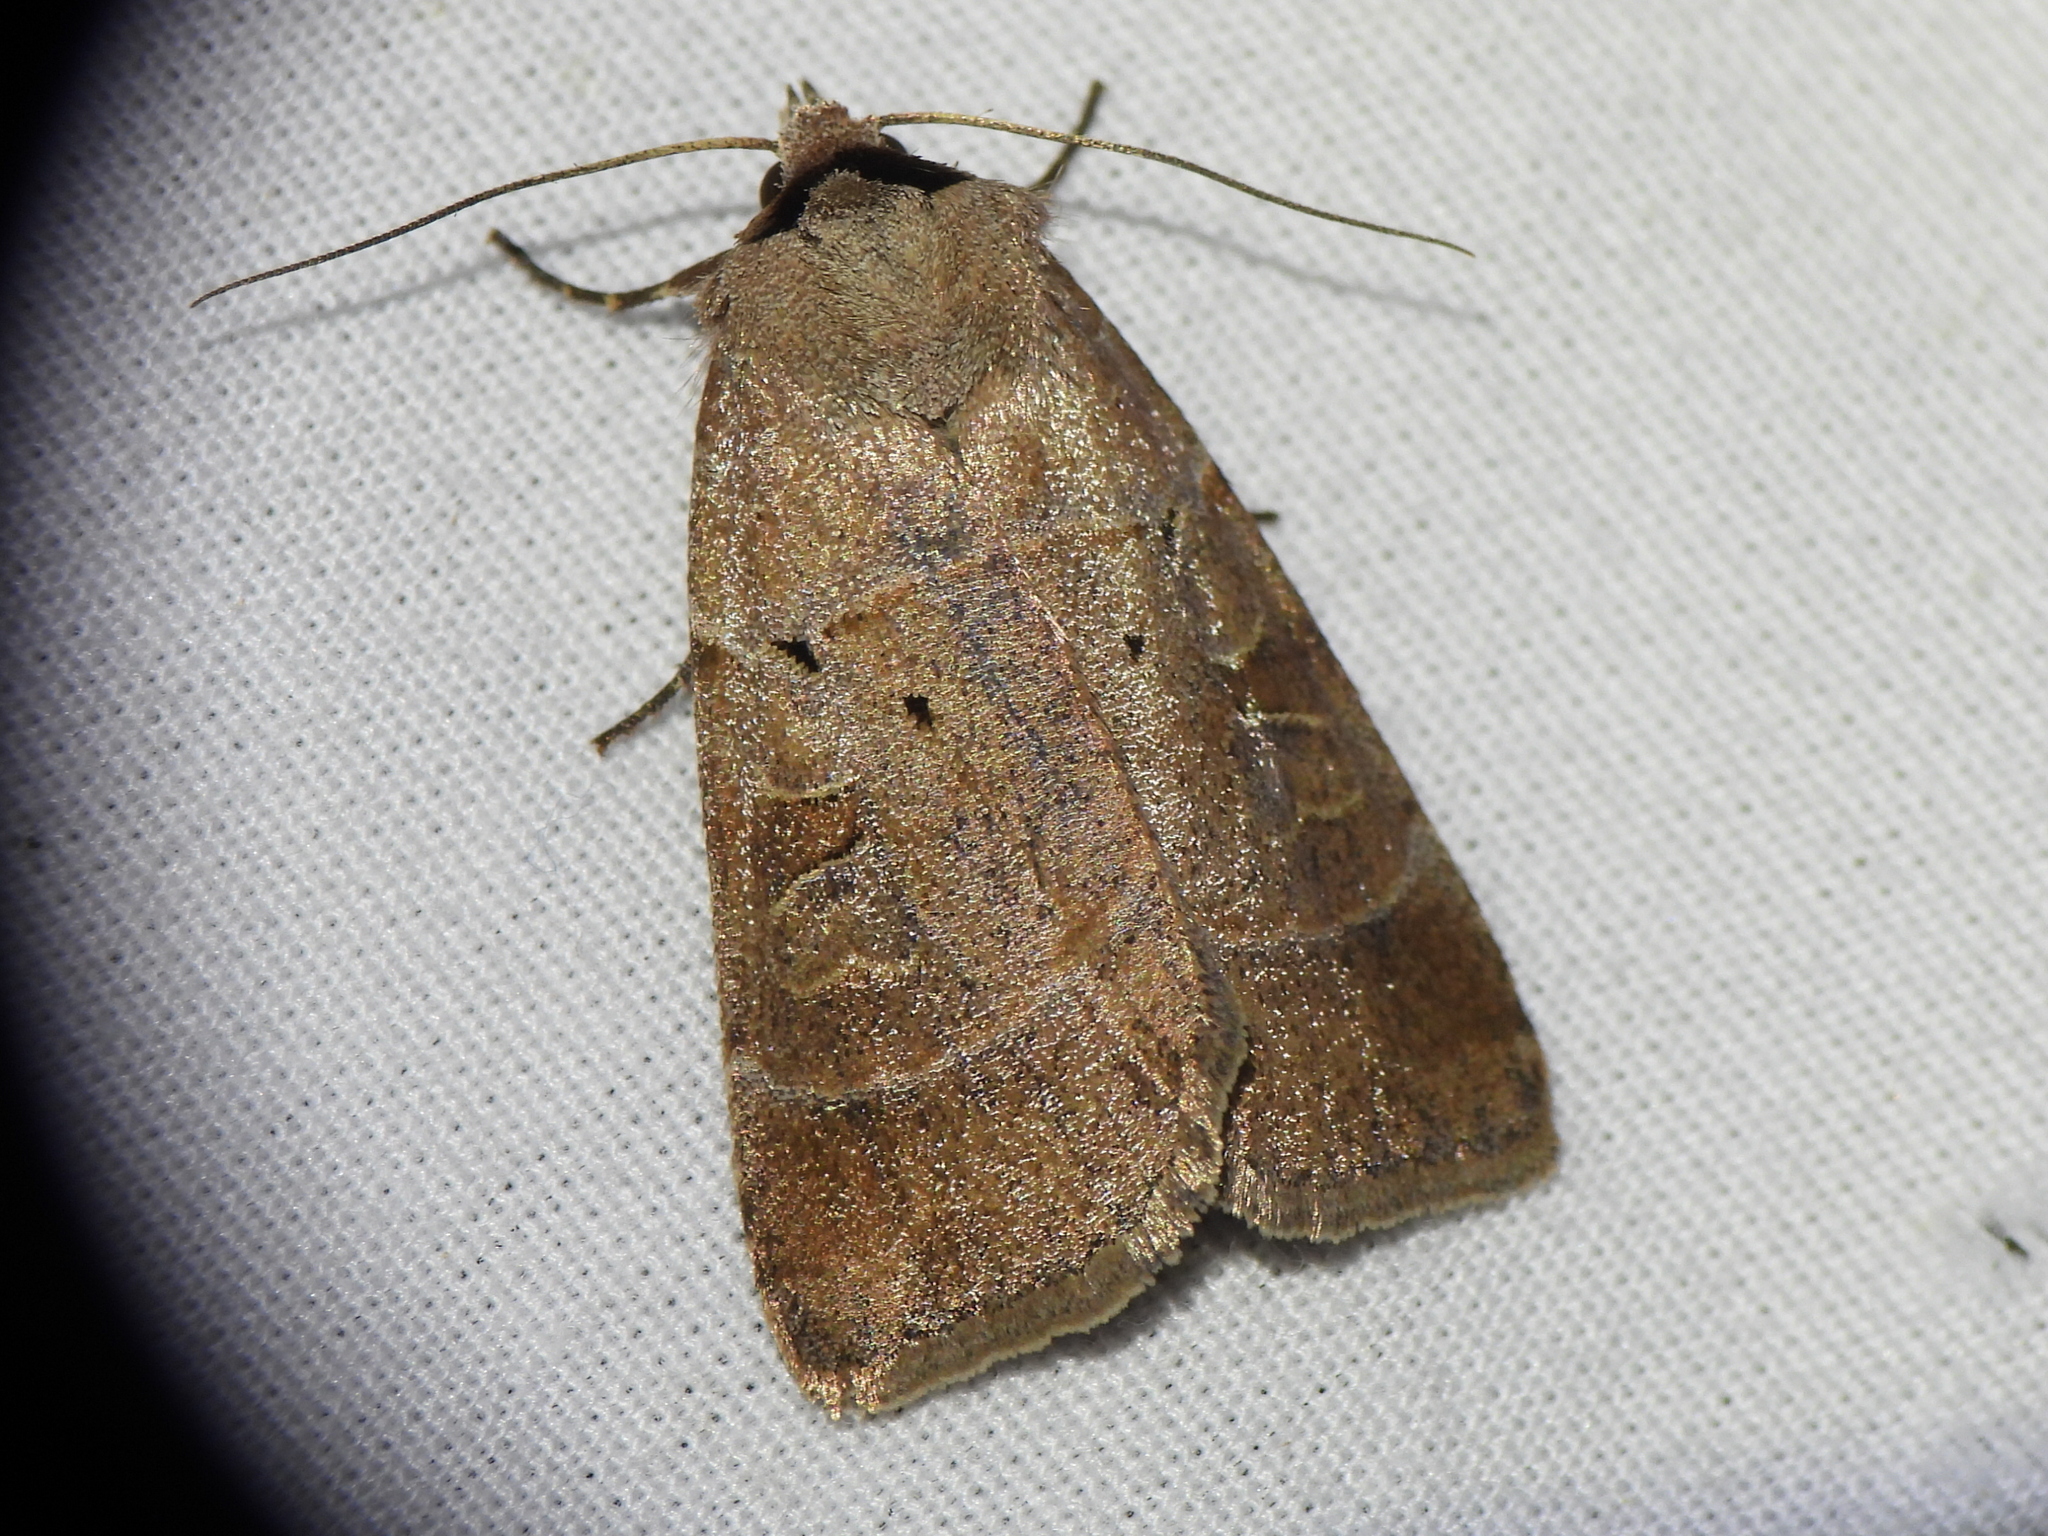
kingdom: Animalia
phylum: Arthropoda
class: Insecta
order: Lepidoptera
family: Noctuidae
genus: Agnorisma
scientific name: Agnorisma badinodis
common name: Pale-banded dart
